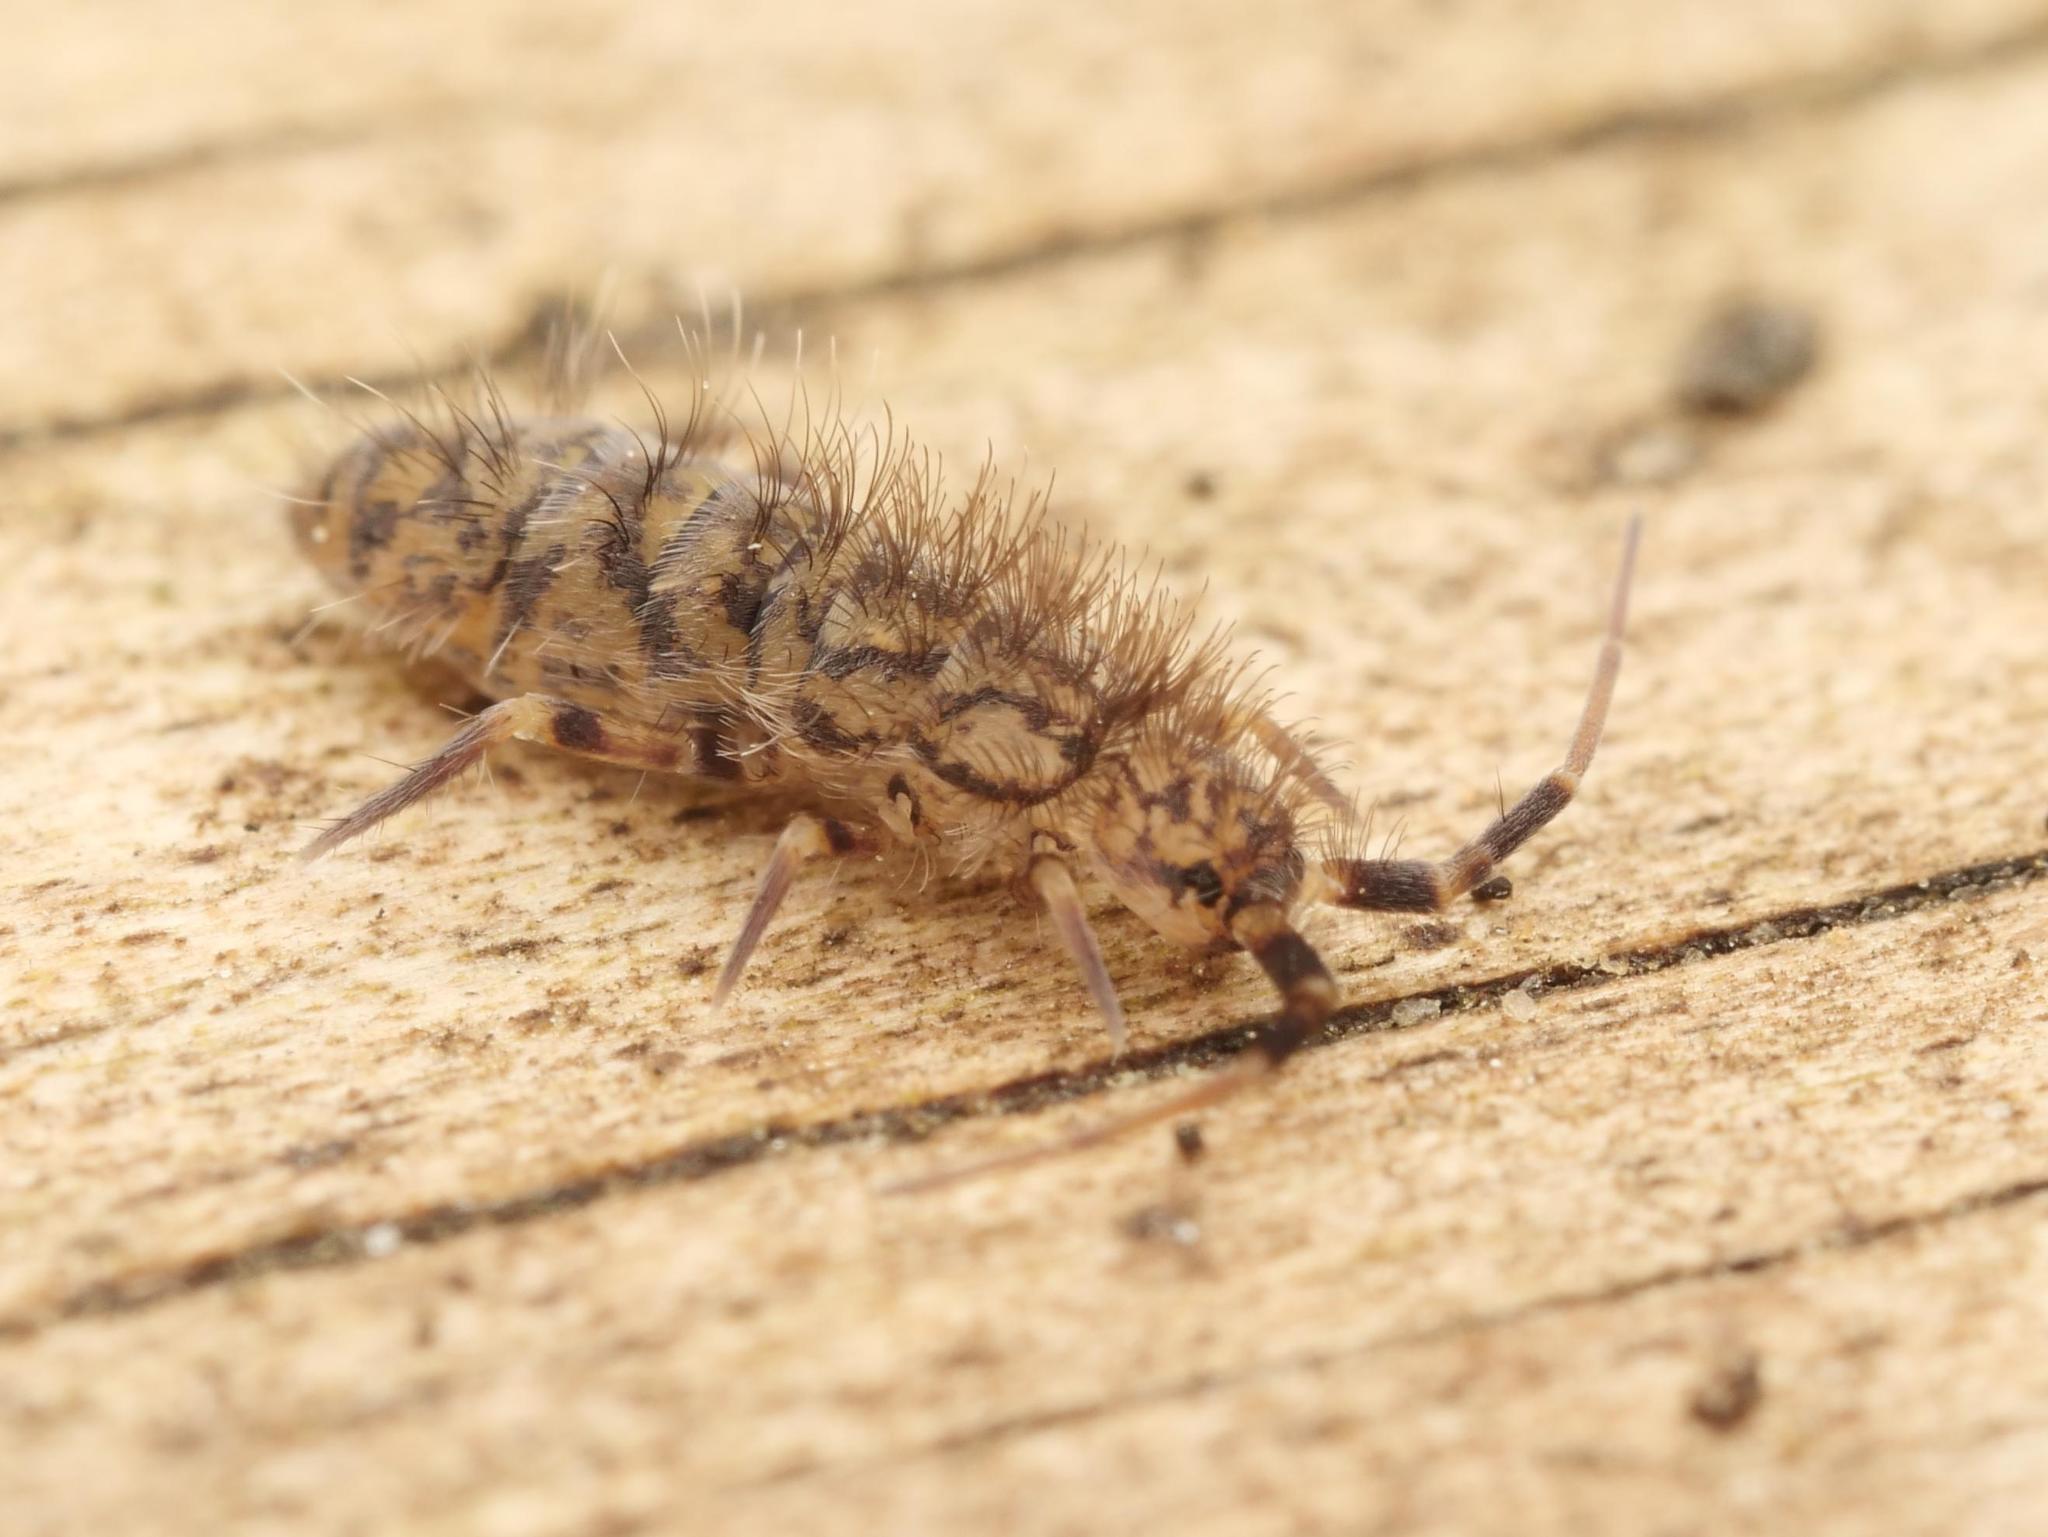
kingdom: Animalia
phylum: Arthropoda
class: Collembola
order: Entomobryomorpha
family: Orchesellidae
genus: Orchesella
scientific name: Orchesella villosa
